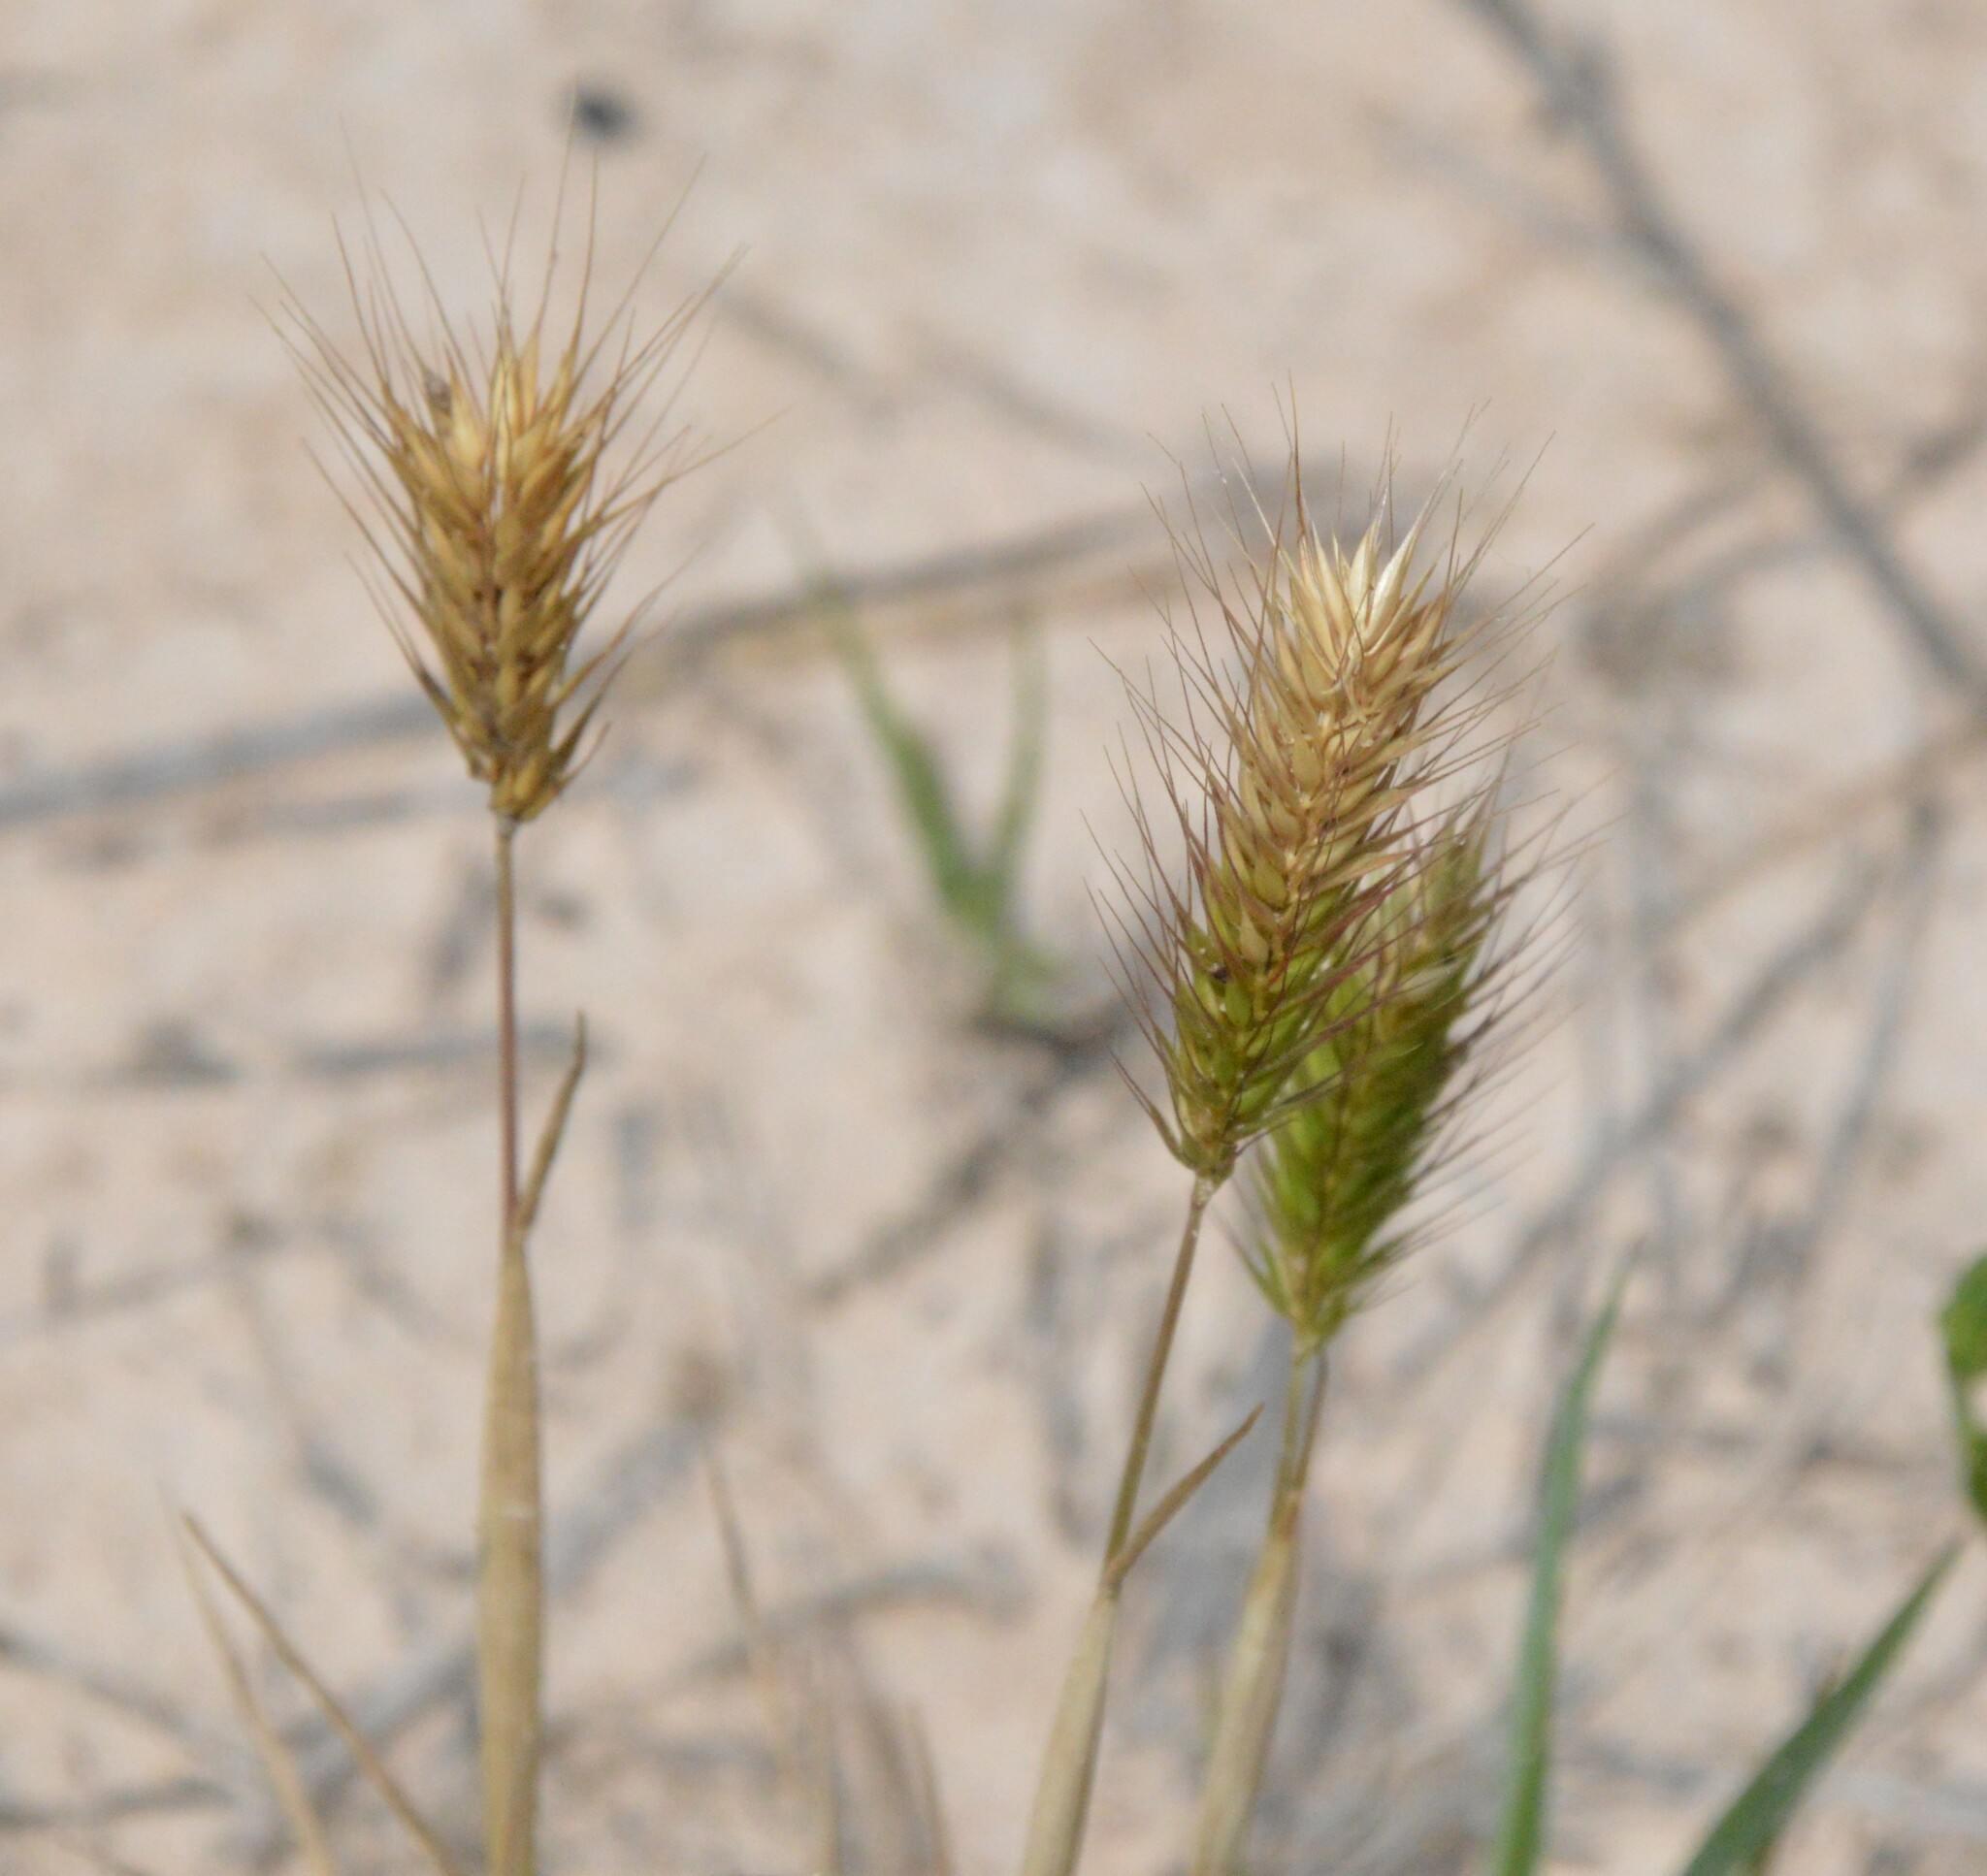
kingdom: Plantae
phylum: Tracheophyta
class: Liliopsida
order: Poales
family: Poaceae
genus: Hordeum
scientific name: Hordeum pusillum
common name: Little barley
